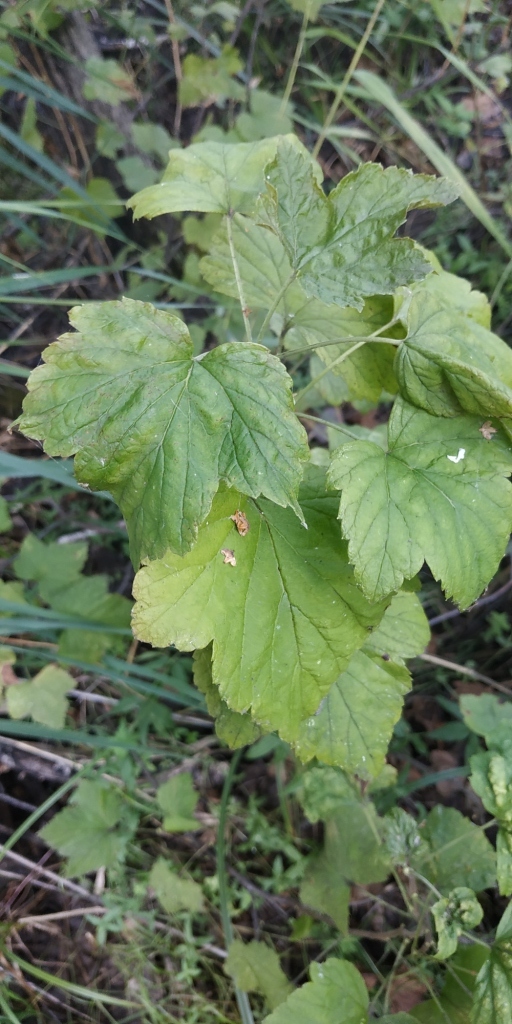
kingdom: Plantae
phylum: Tracheophyta
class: Magnoliopsida
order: Saxifragales
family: Grossulariaceae
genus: Ribes
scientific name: Ribes nigrum
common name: Black currant
